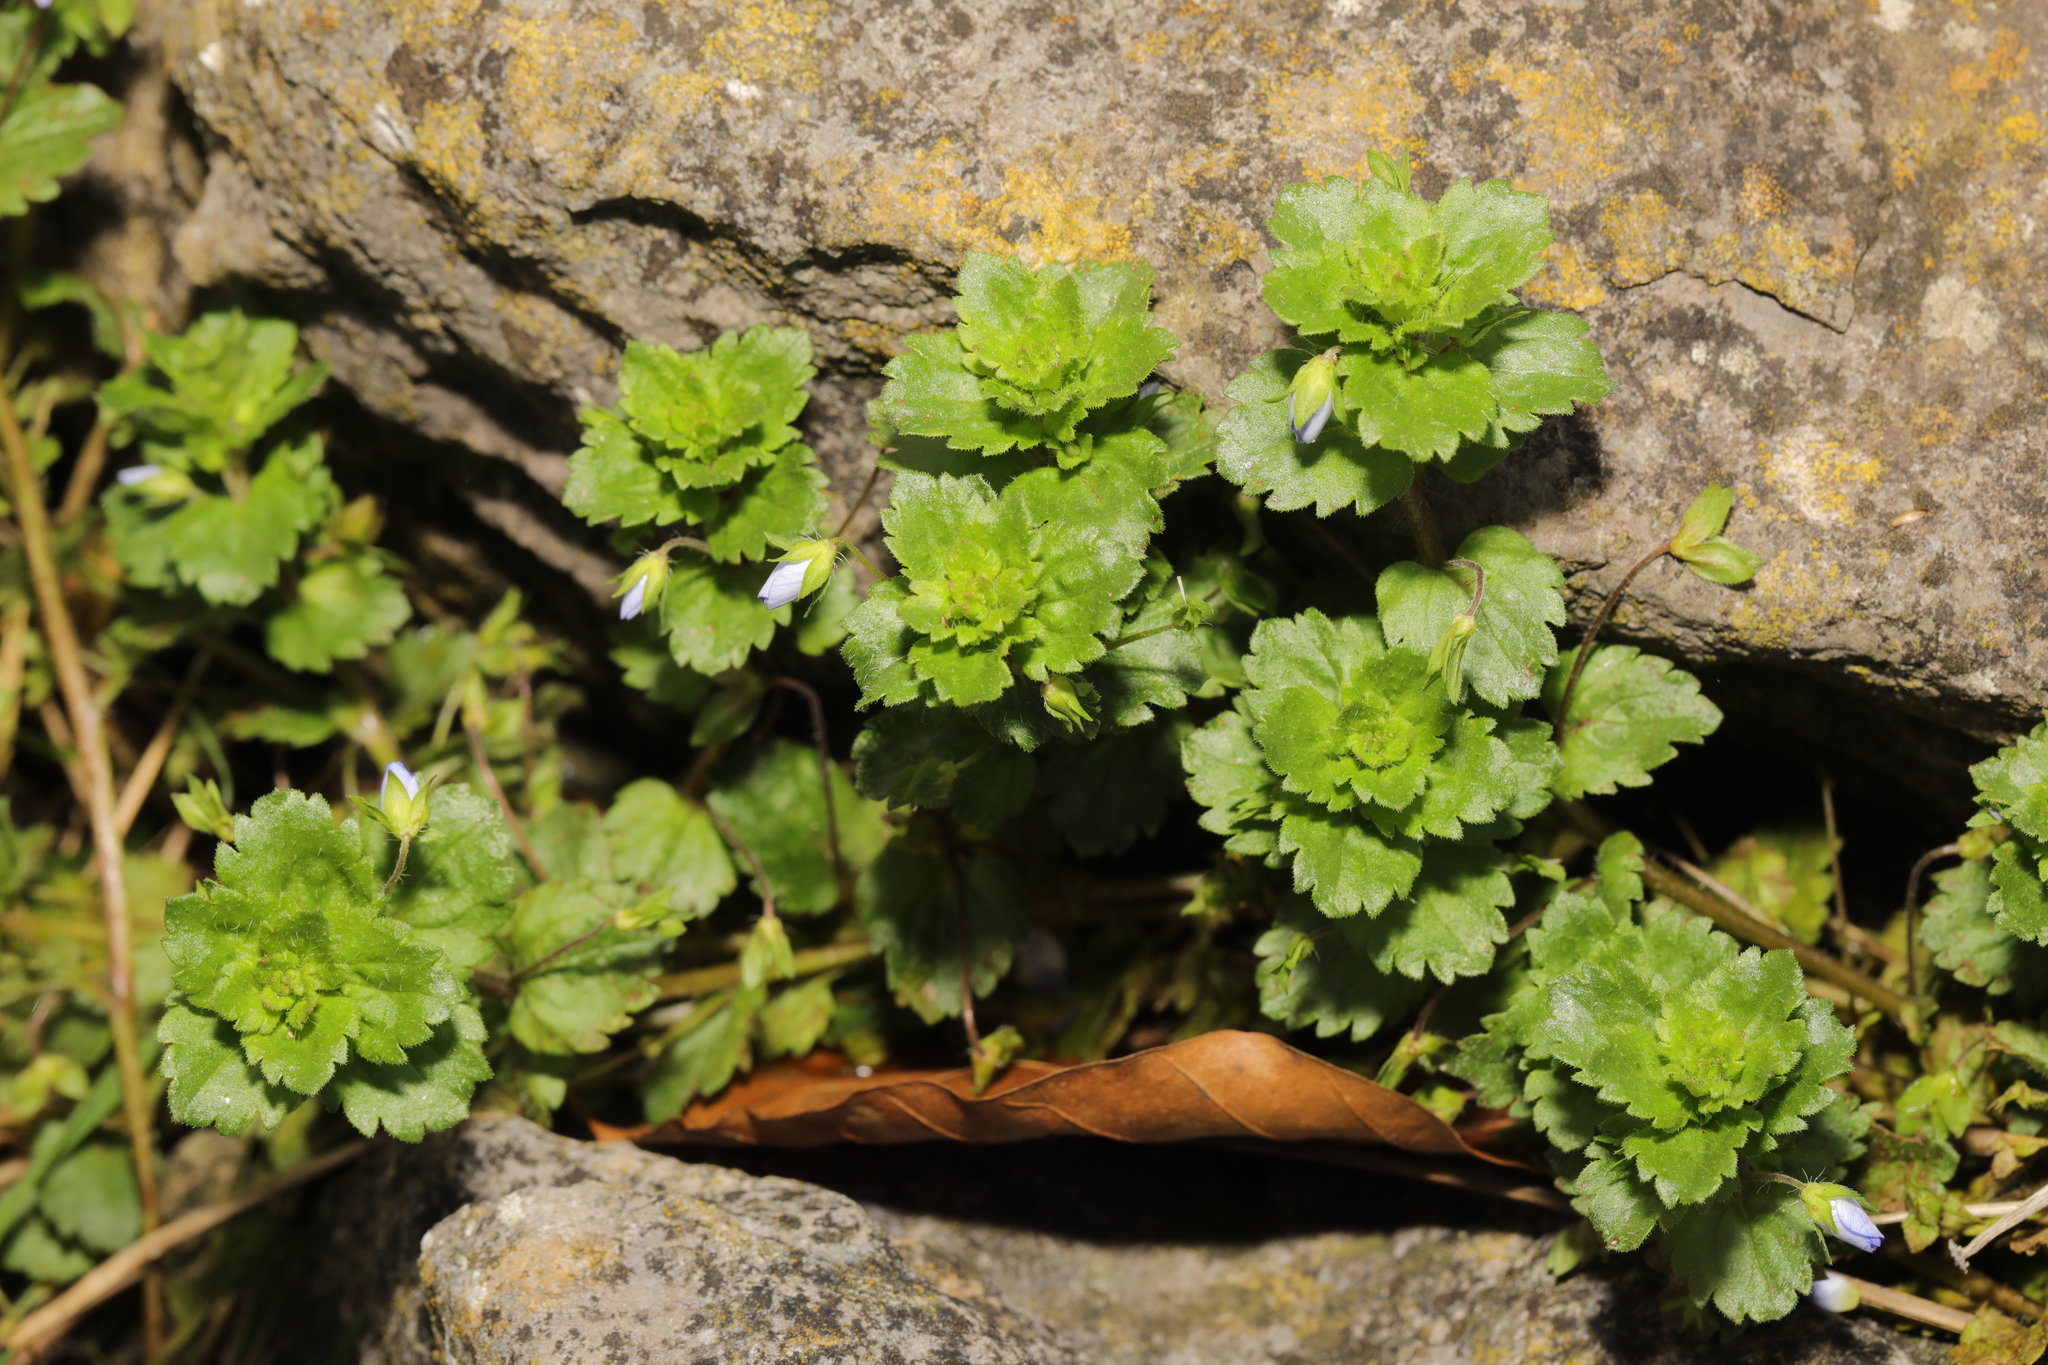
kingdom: Plantae
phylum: Tracheophyta
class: Magnoliopsida
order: Lamiales
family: Plantaginaceae
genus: Veronica
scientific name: Veronica persica
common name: Common field-speedwell
